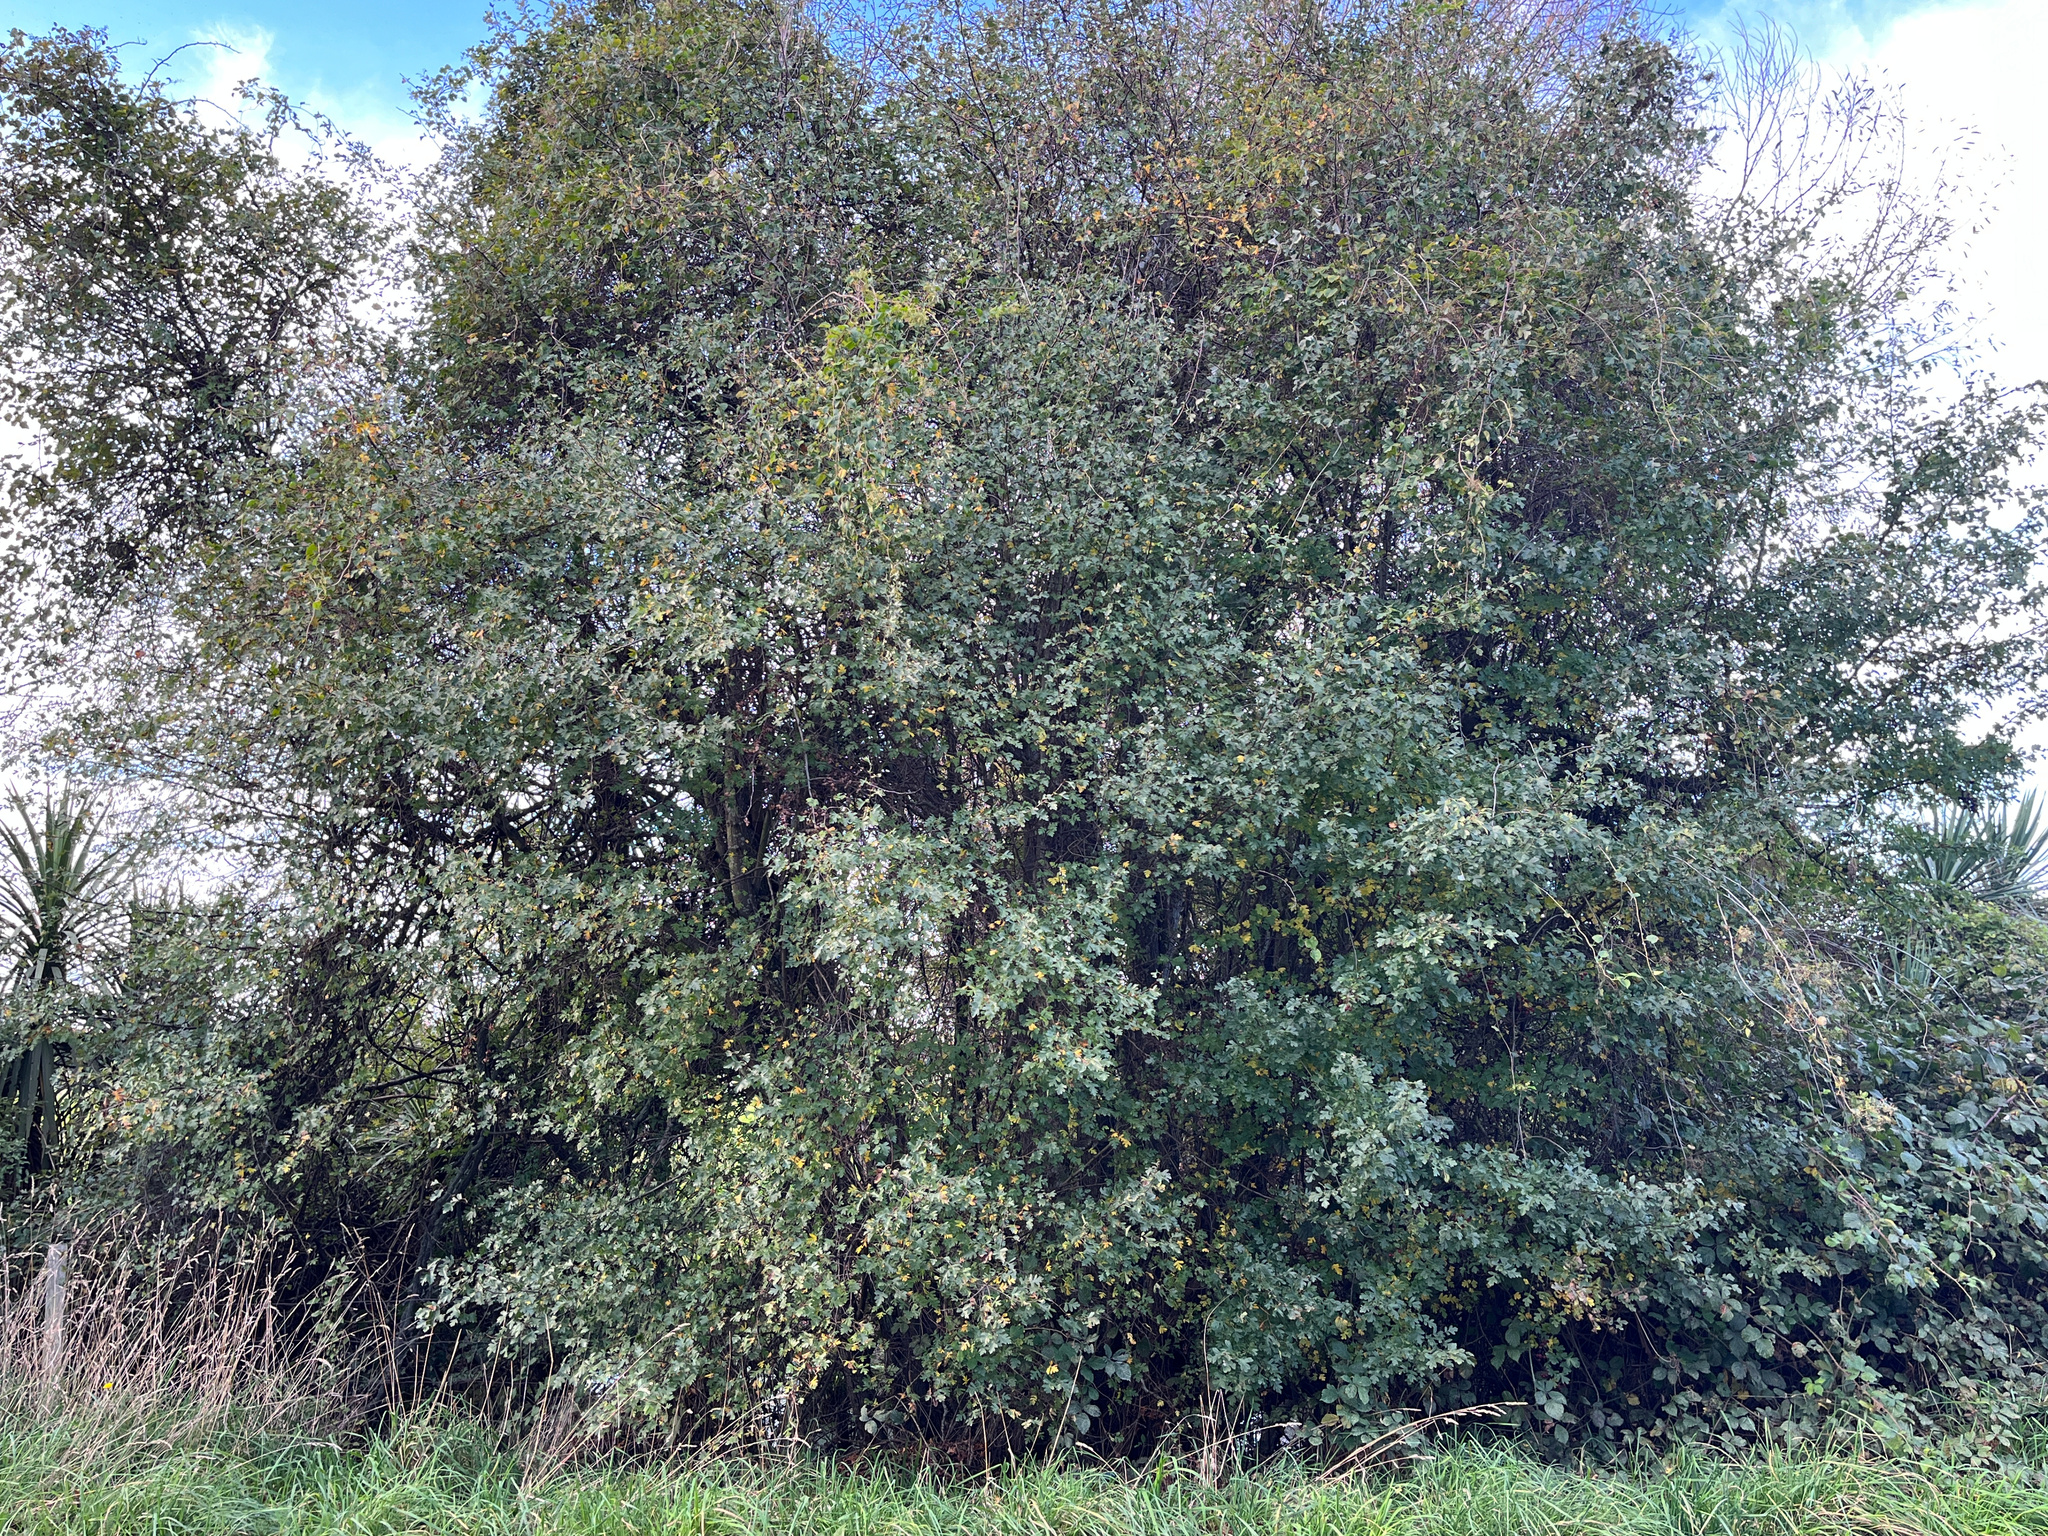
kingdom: Plantae
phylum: Tracheophyta
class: Magnoliopsida
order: Rosales
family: Rosaceae
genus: Crataegus
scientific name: Crataegus monogyna
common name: Hawthorn
